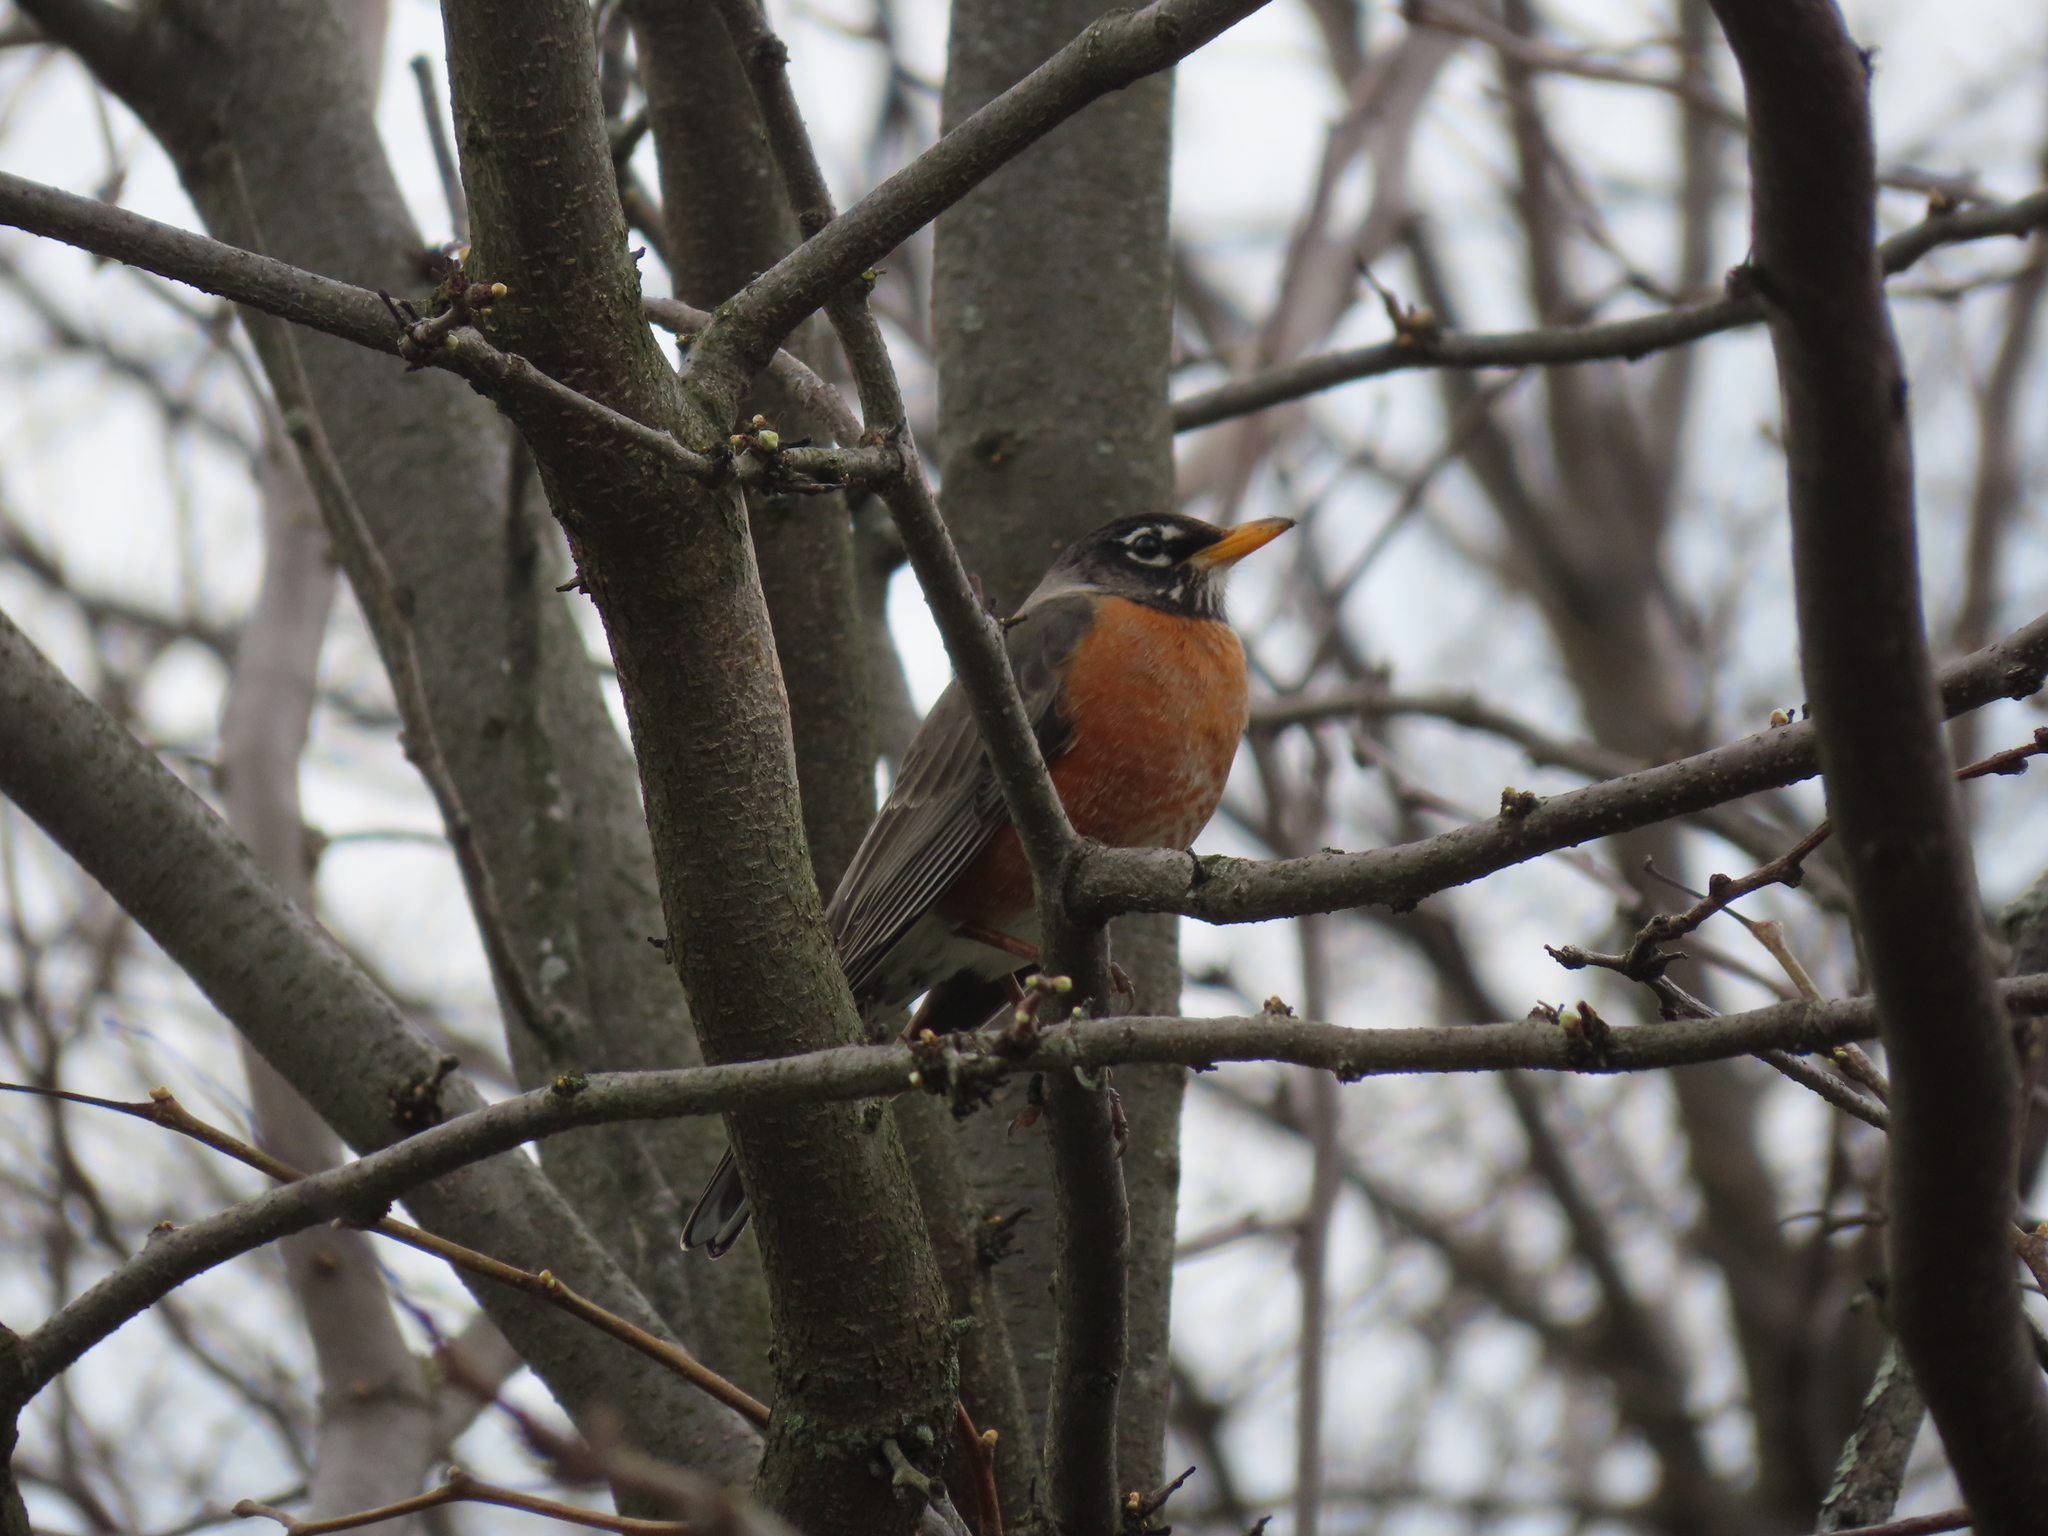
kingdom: Animalia
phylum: Chordata
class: Aves
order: Passeriformes
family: Turdidae
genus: Turdus
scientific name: Turdus migratorius
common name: American robin
